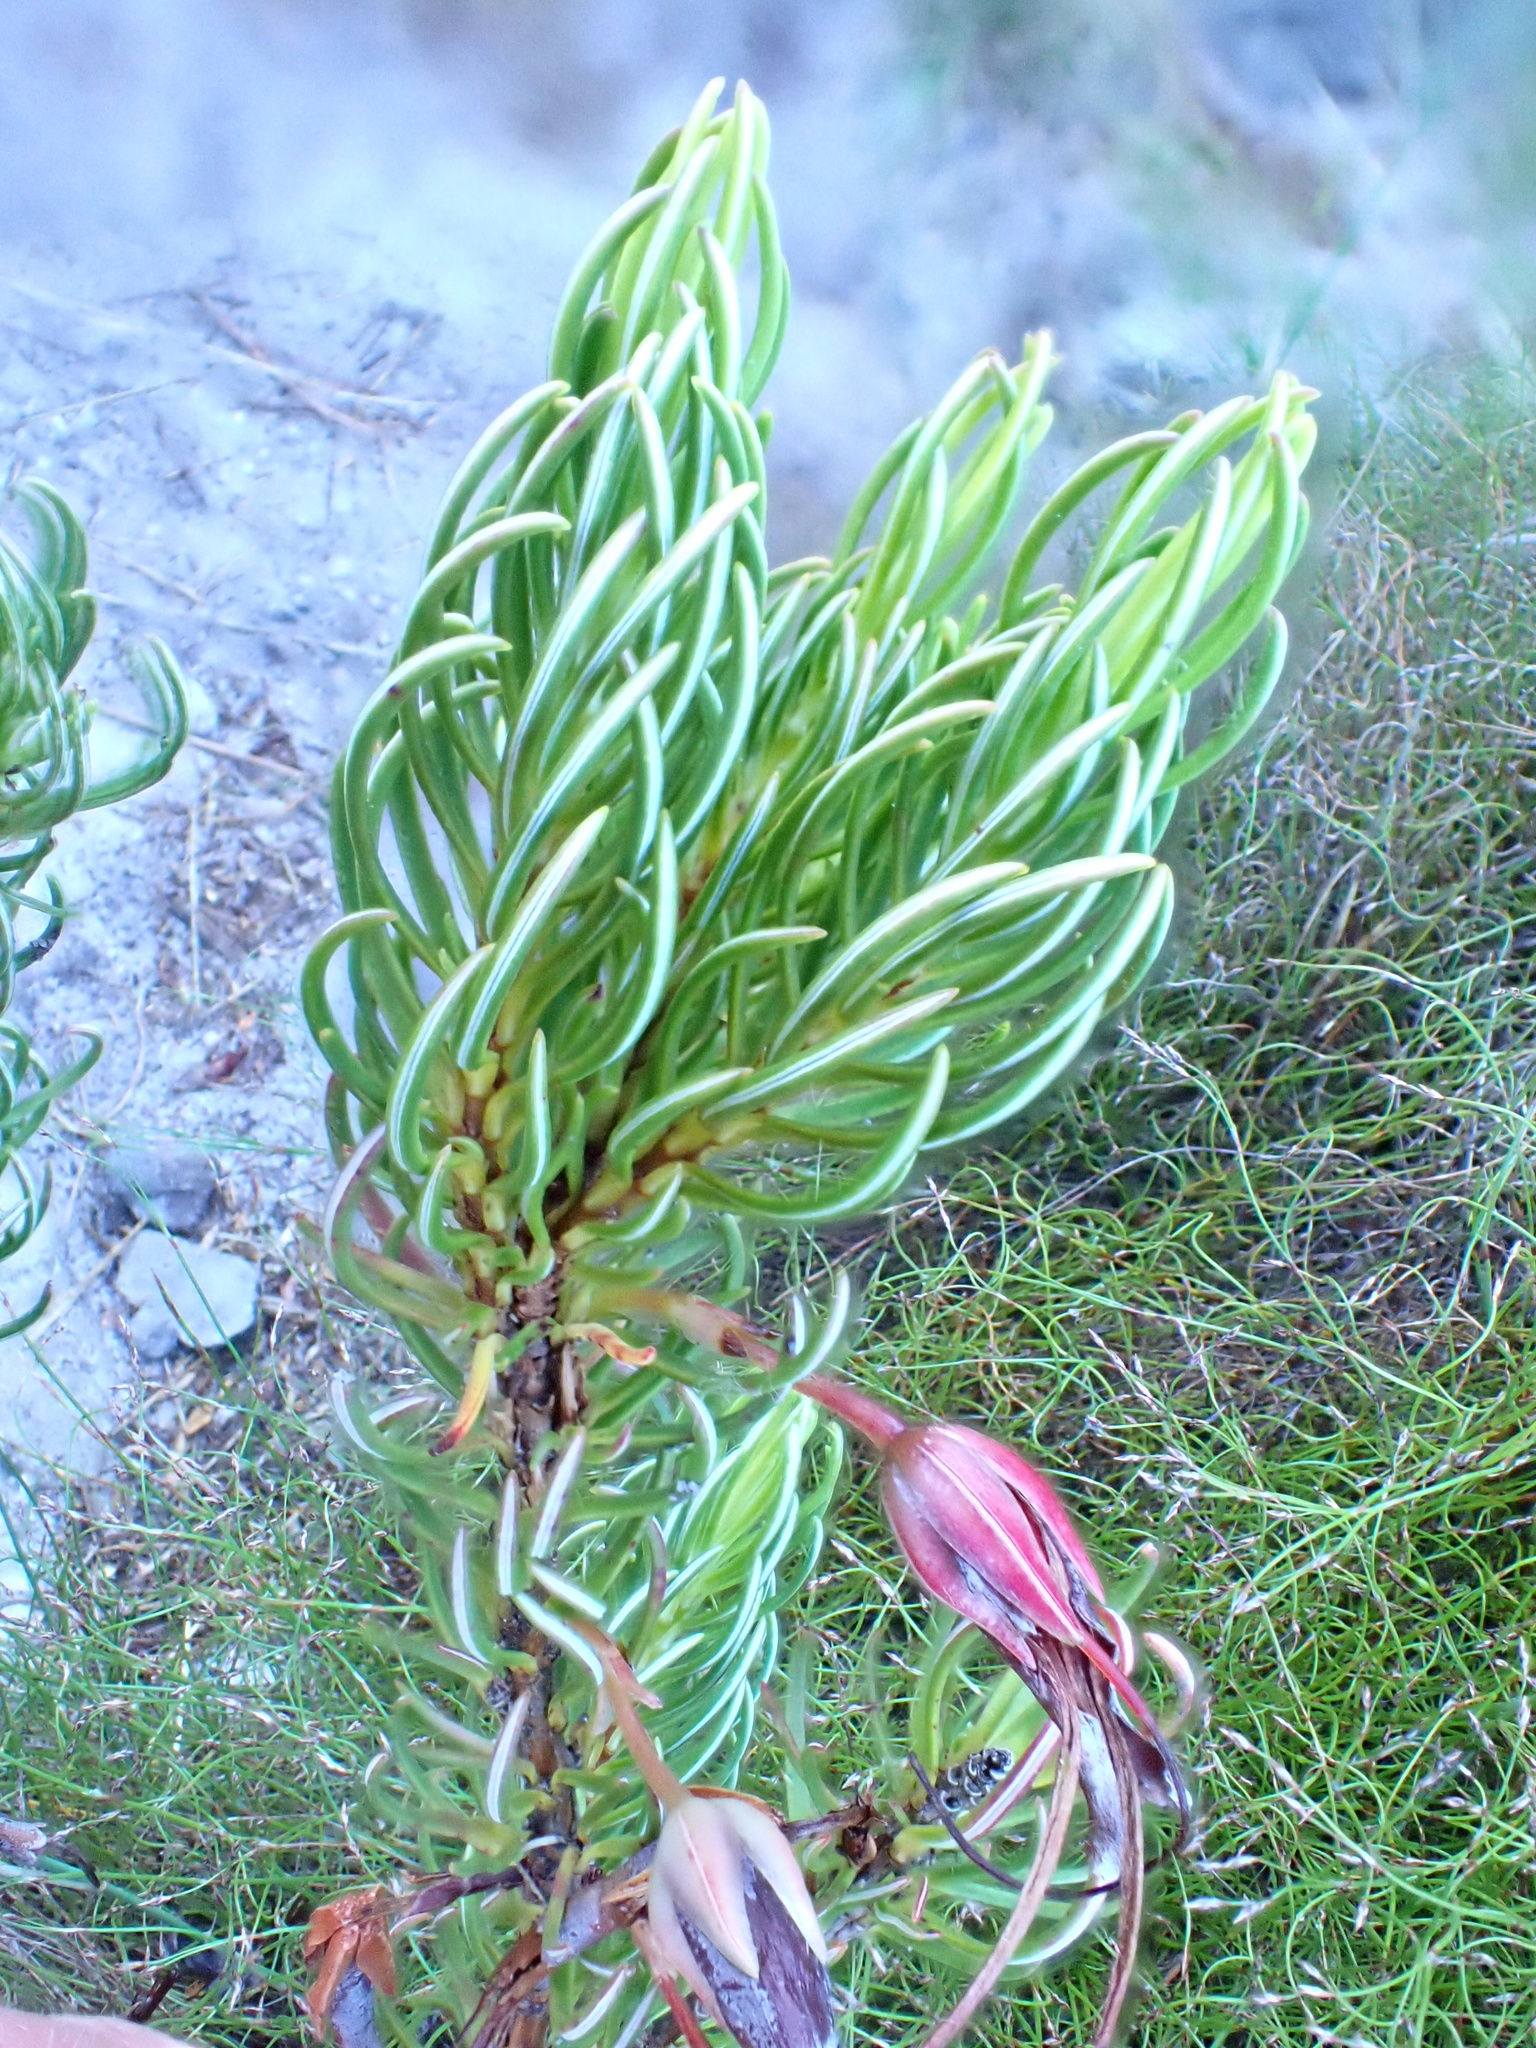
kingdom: Plantae
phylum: Tracheophyta
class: Magnoliopsida
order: Ericales
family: Ericaceae
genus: Erica
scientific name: Erica plukenetii
